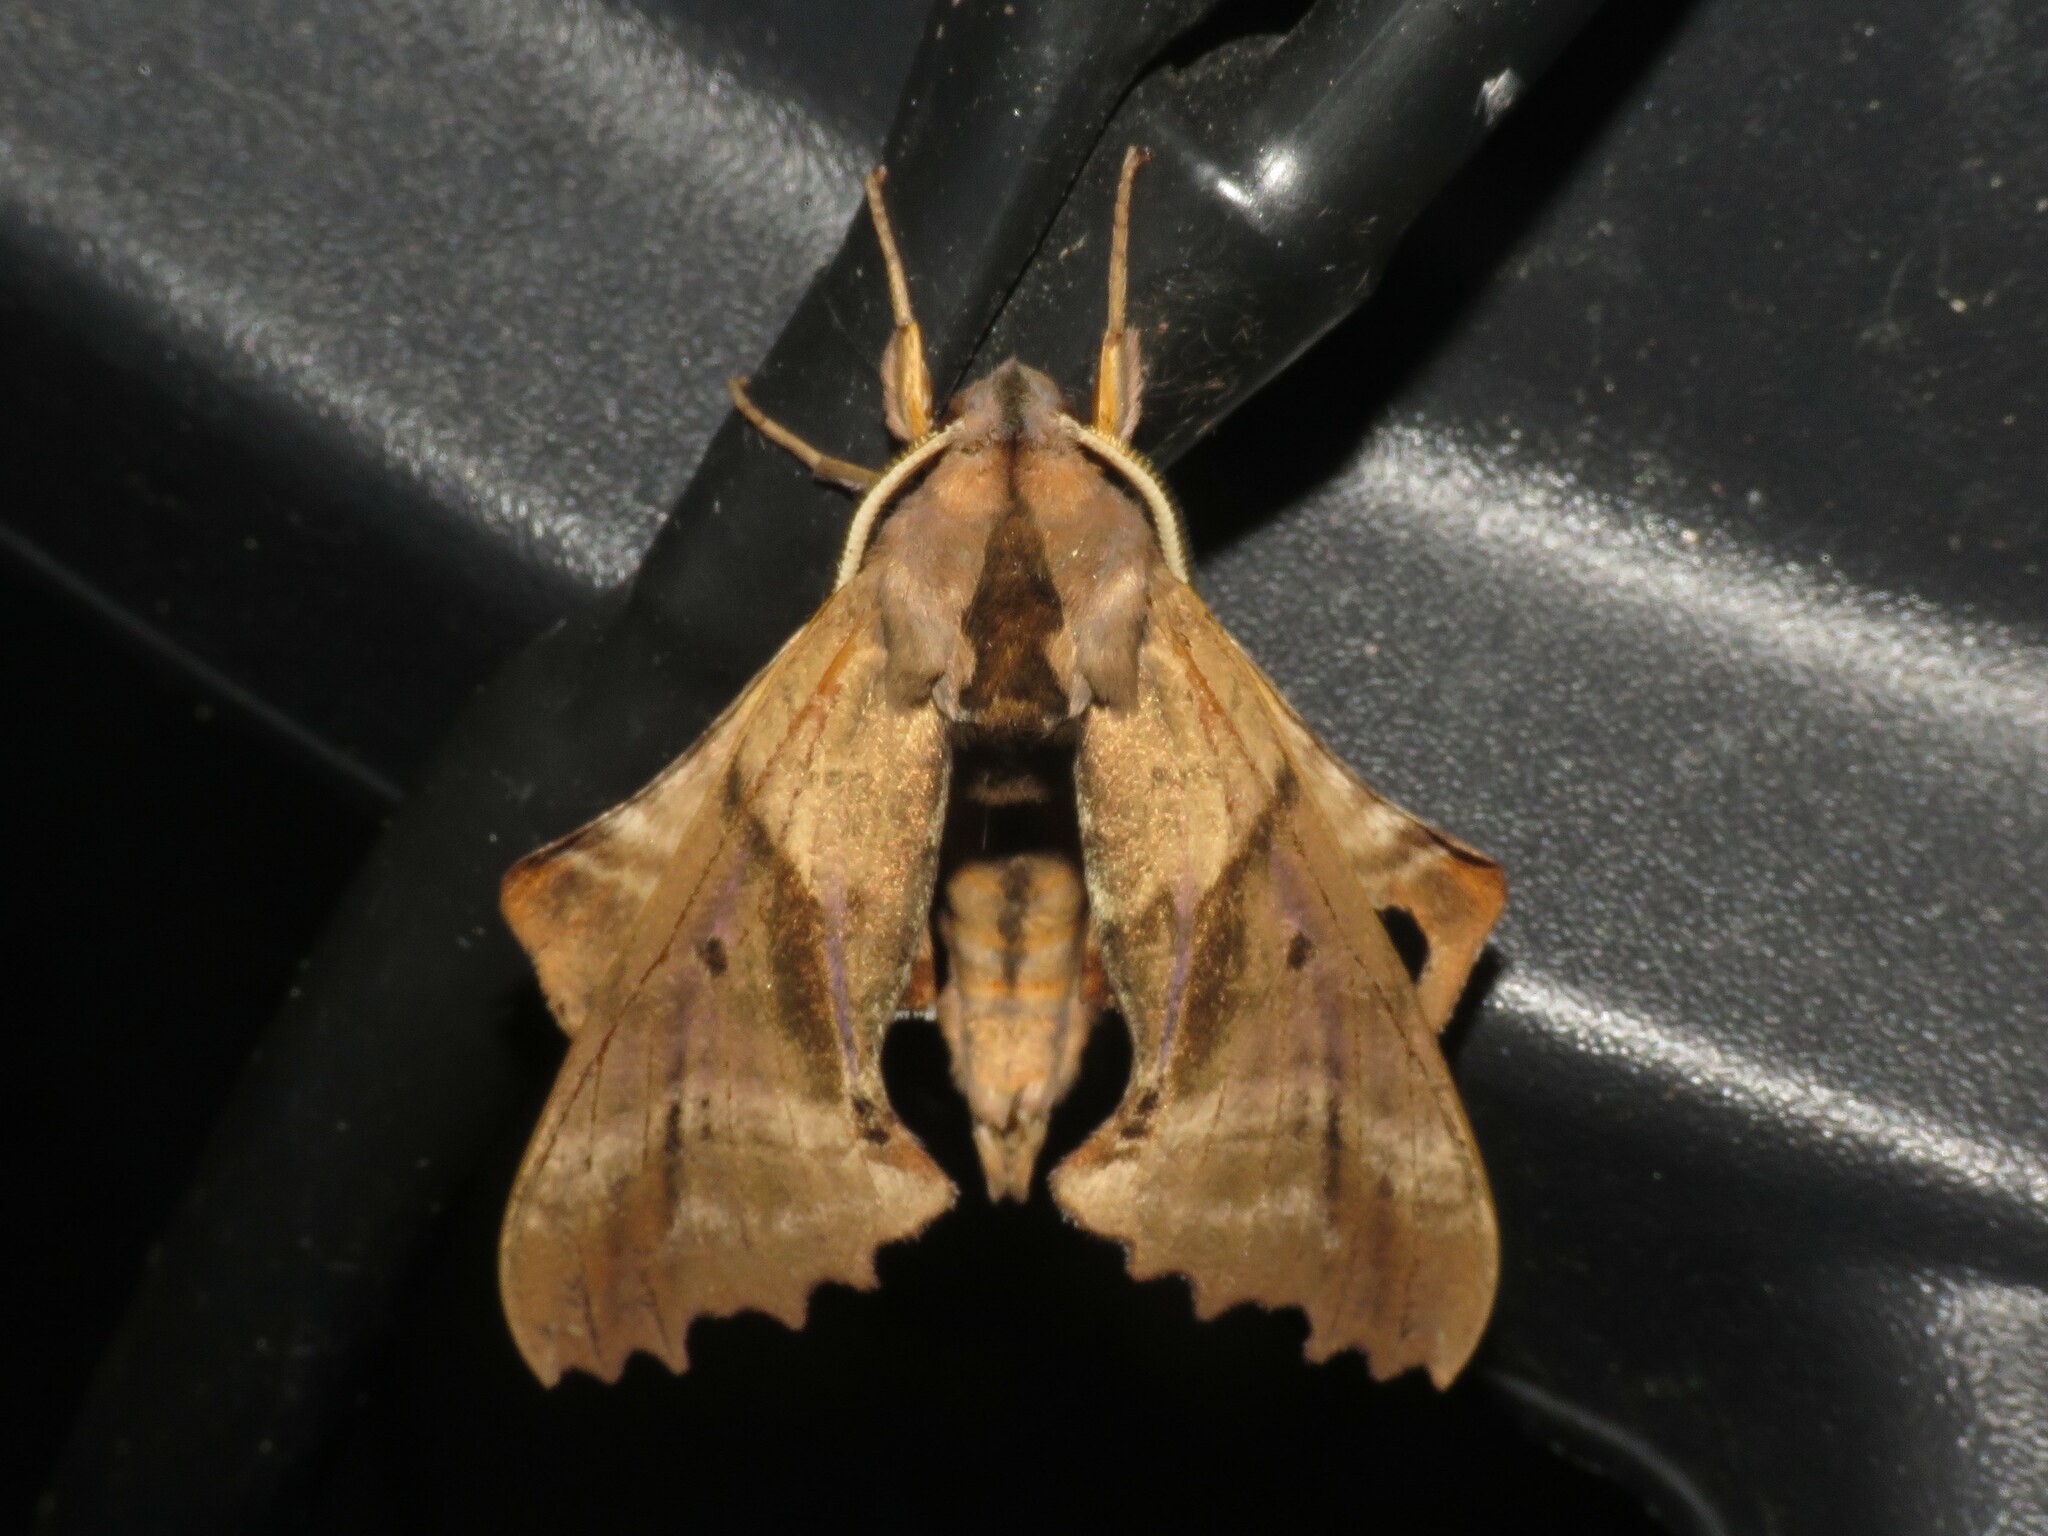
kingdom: Animalia
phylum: Arthropoda
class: Insecta
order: Lepidoptera
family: Sphingidae
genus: Paonias
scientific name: Paonias excaecata
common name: Blind-eyed sphinx
